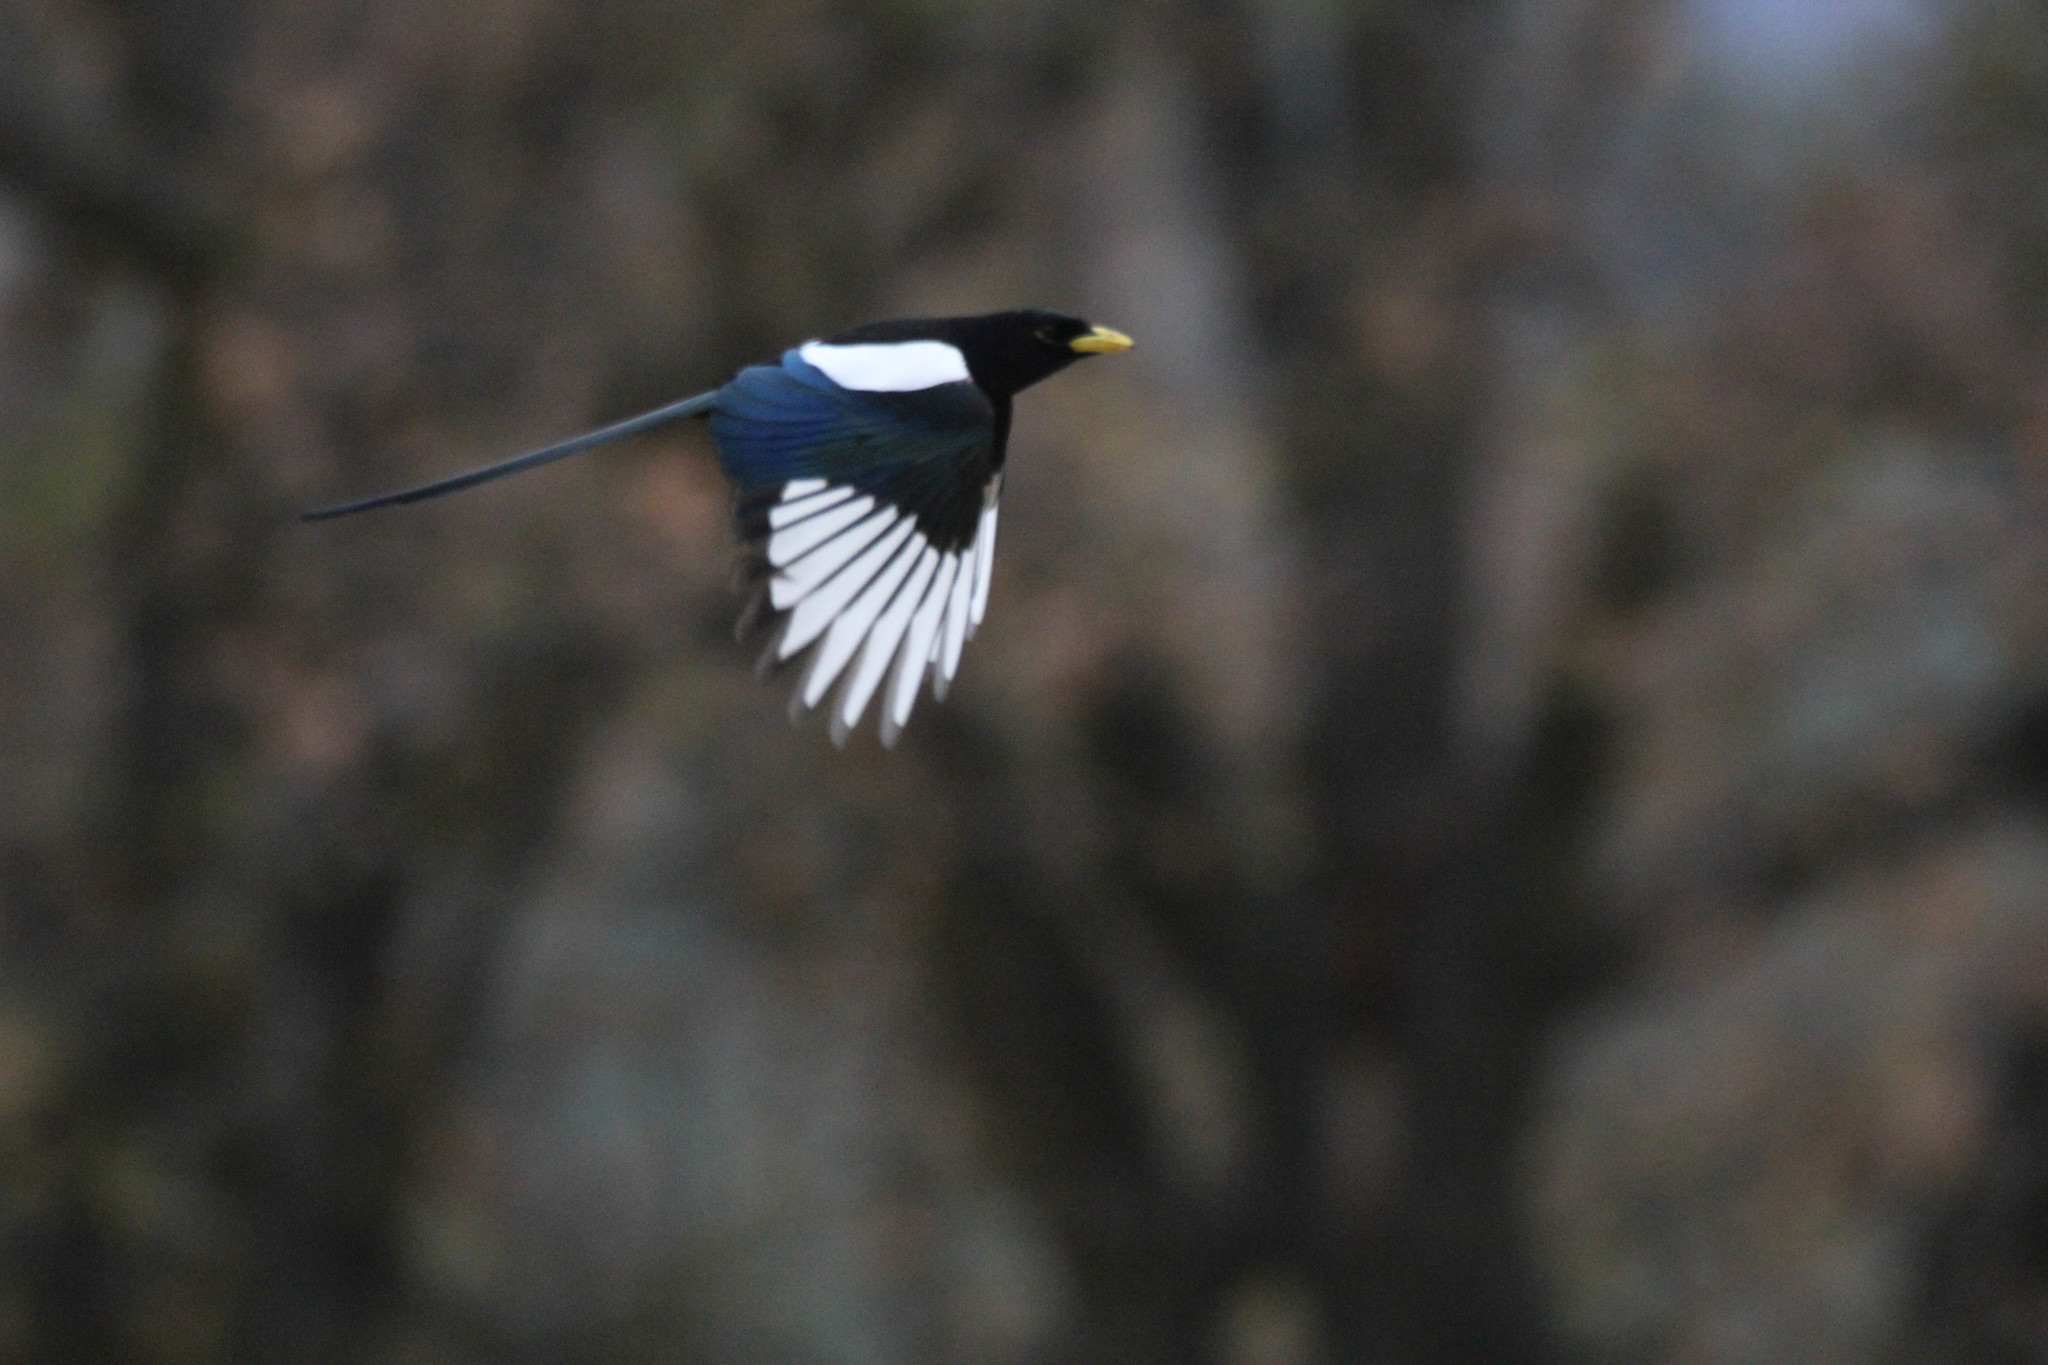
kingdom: Animalia
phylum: Chordata
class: Aves
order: Passeriformes
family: Corvidae
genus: Pica
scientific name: Pica nuttalli
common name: Yellow-billed magpie
